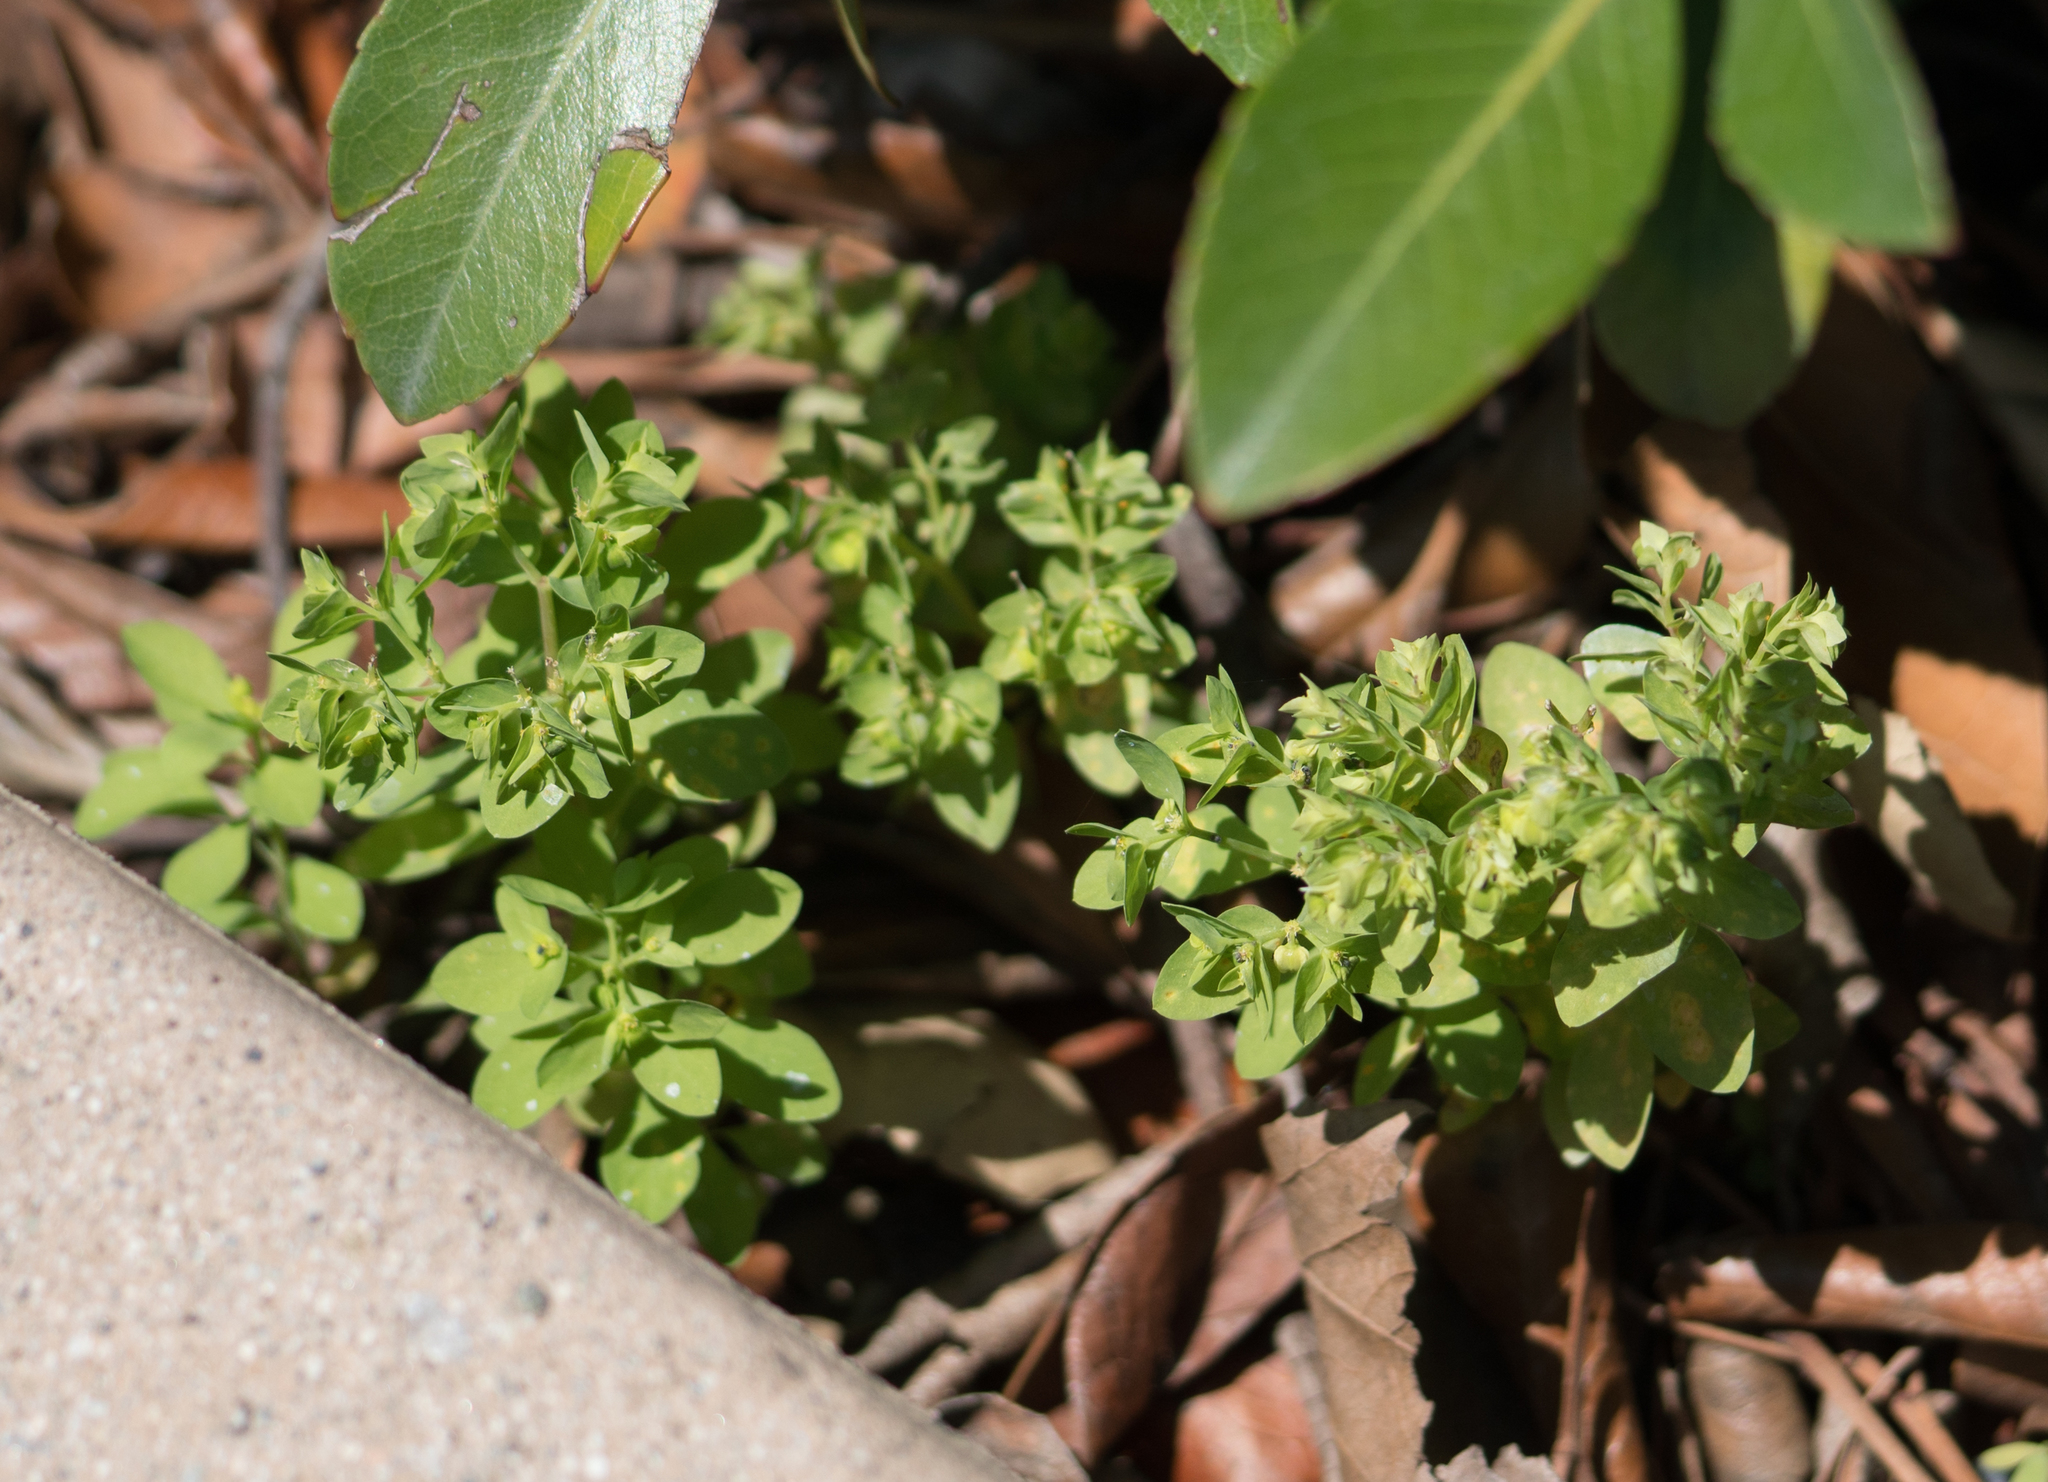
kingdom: Plantae
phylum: Tracheophyta
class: Magnoliopsida
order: Malpighiales
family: Euphorbiaceae
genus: Euphorbia
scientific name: Euphorbia peplus
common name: Petty spurge
